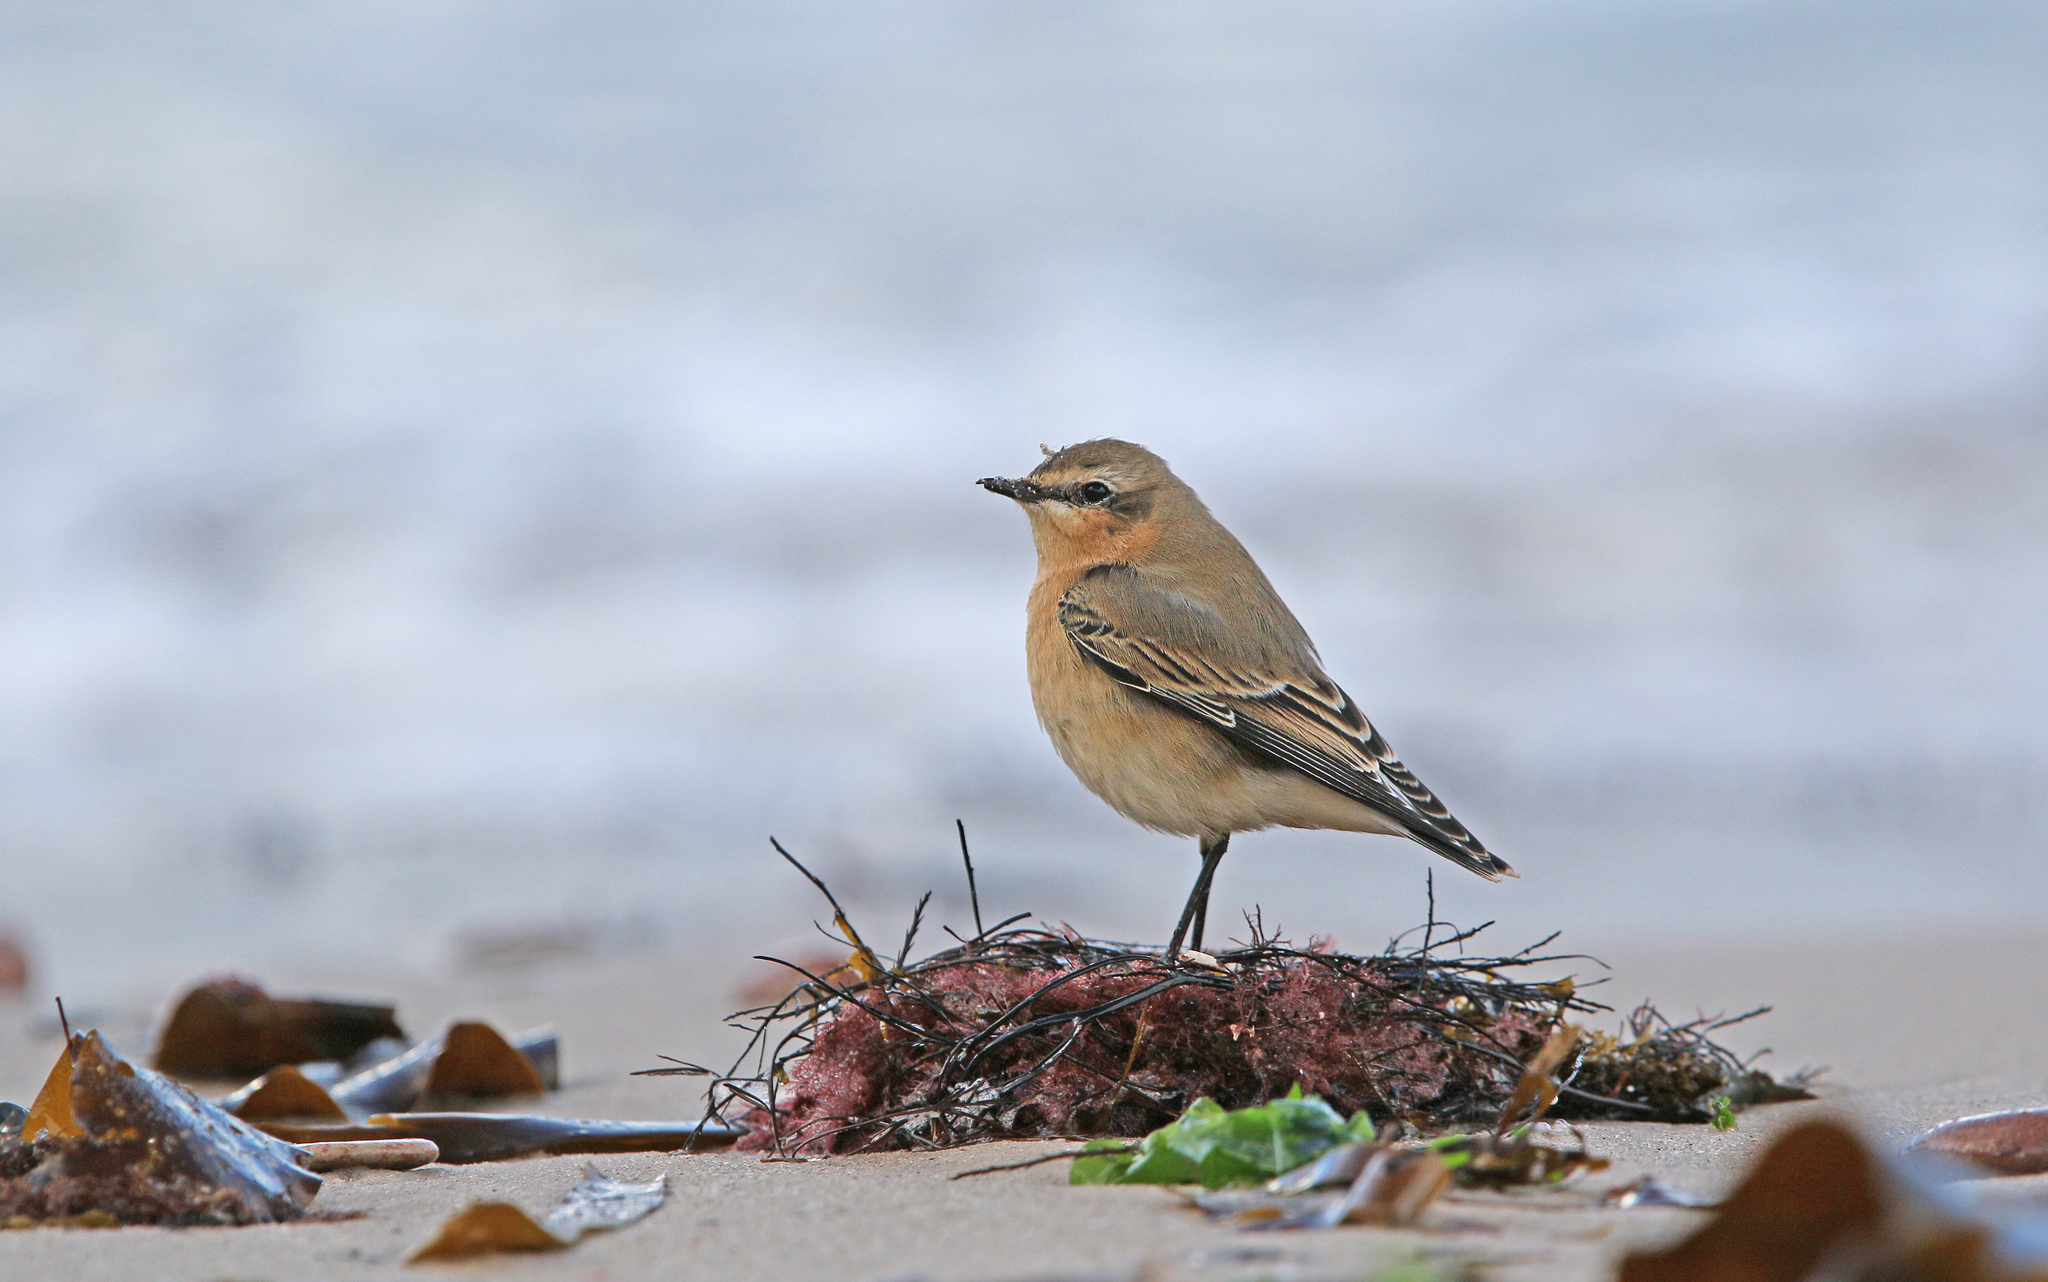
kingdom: Animalia
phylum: Chordata
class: Aves
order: Passeriformes
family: Muscicapidae
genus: Oenanthe
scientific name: Oenanthe oenanthe
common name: Northern wheatear
